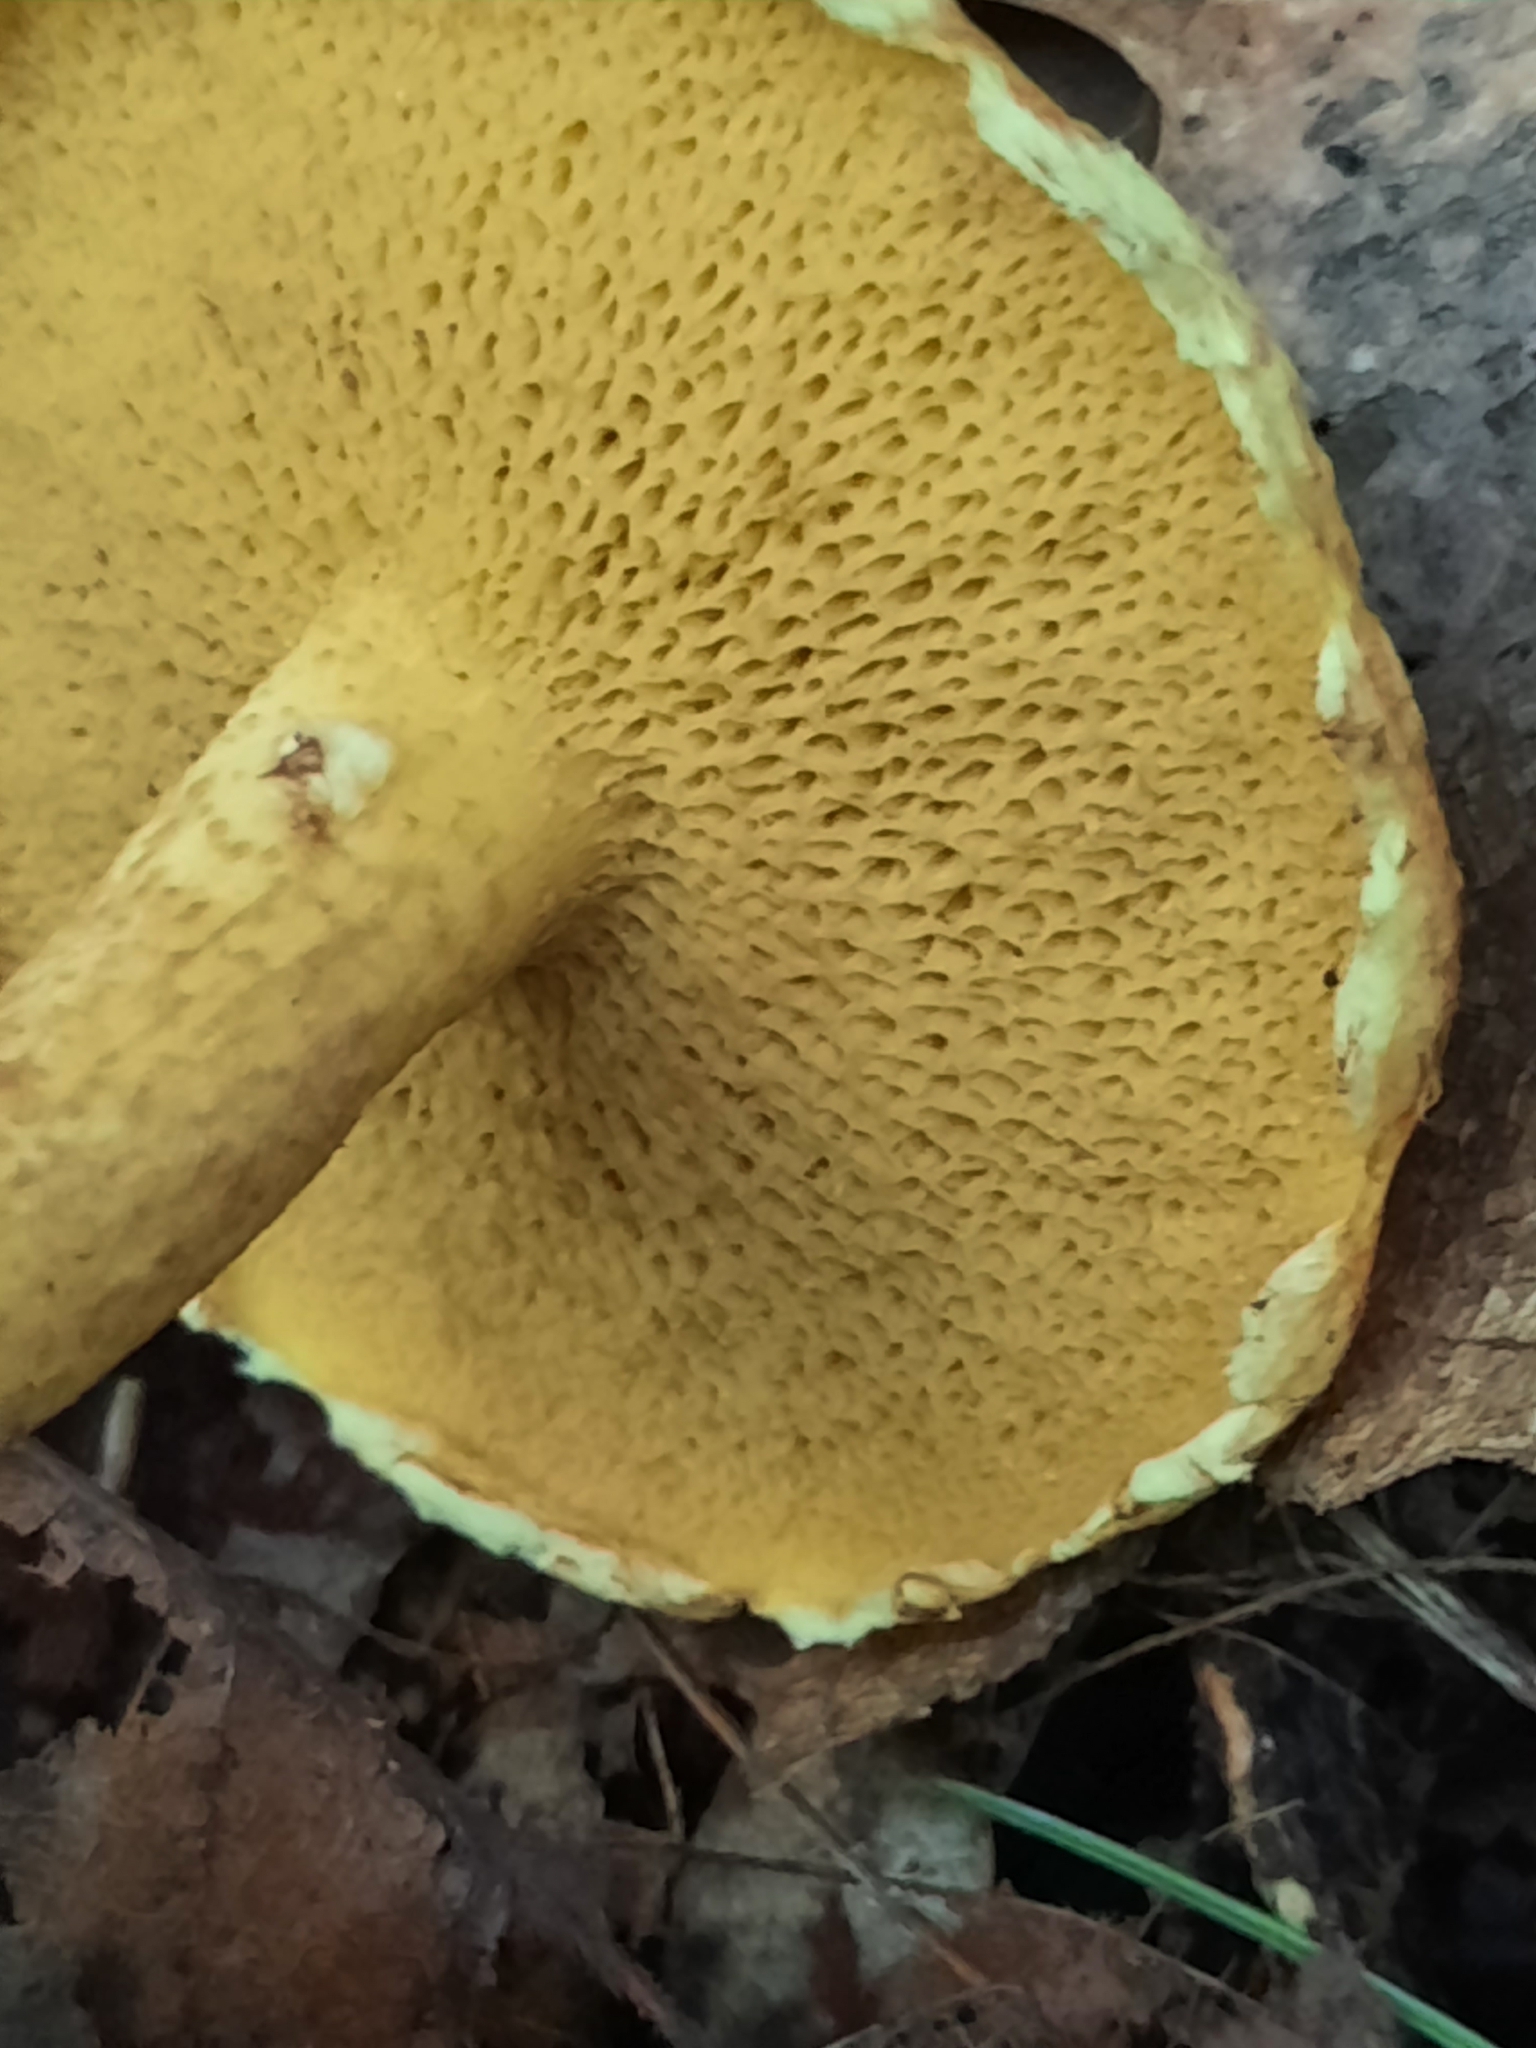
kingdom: Fungi
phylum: Basidiomycota
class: Agaricomycetes
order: Boletales
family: Suillaceae
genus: Suillus
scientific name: Suillus americanus
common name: Chicken fat mushroom
